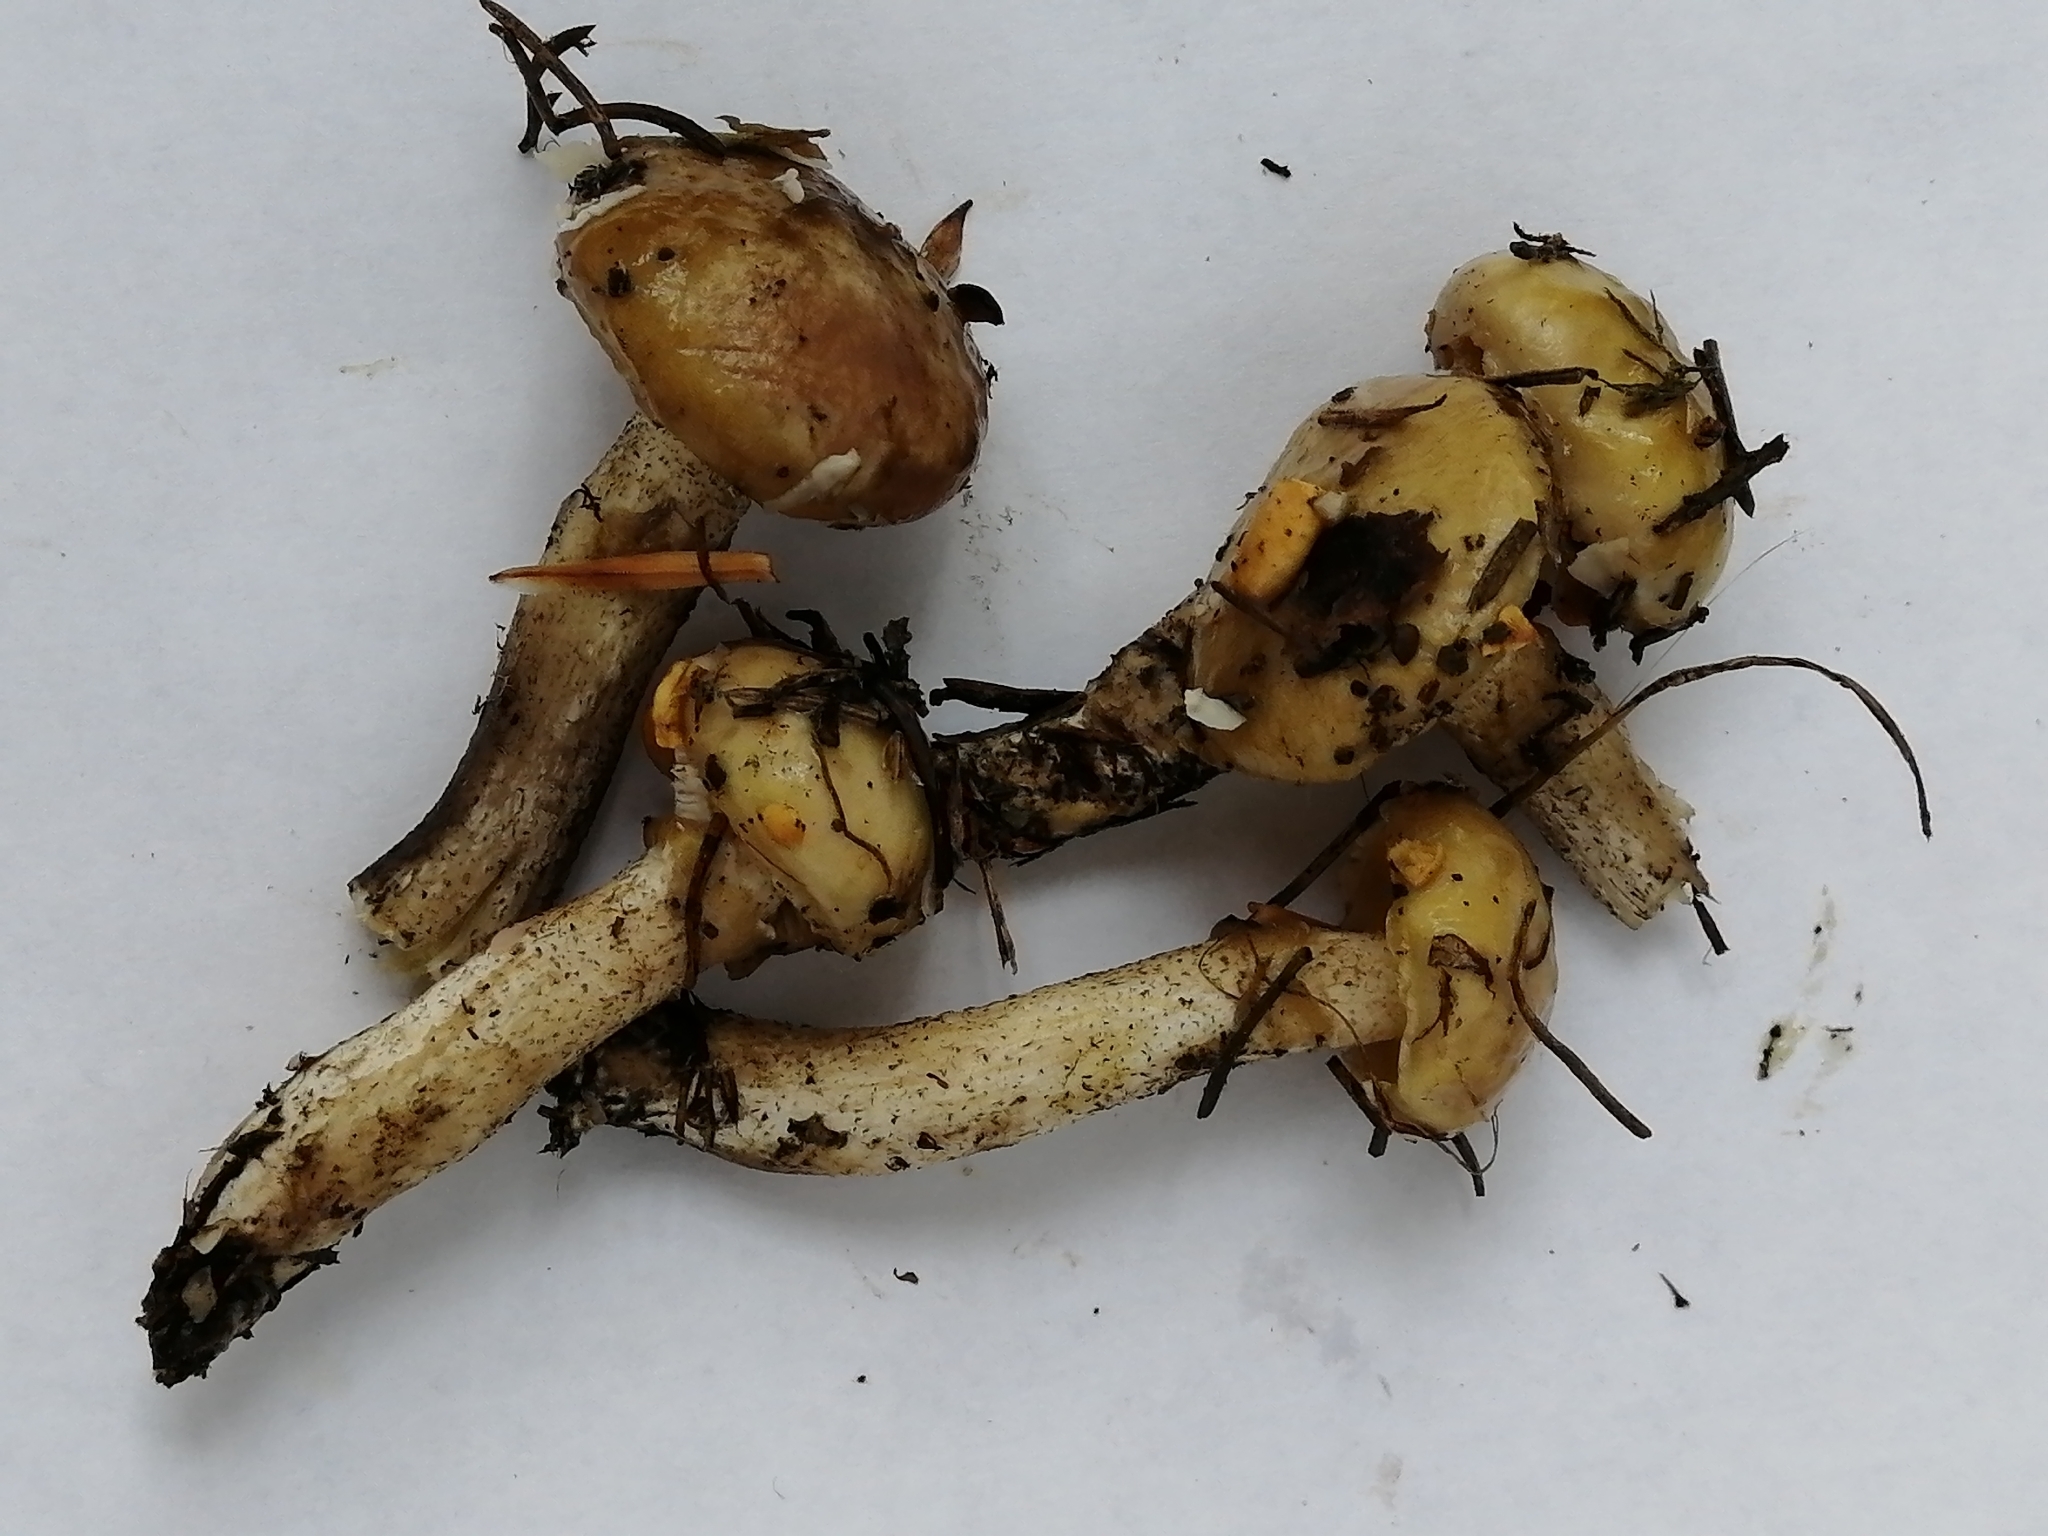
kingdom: Fungi
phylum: Basidiomycota
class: Agaricomycetes
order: Boletales
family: Suillaceae
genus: Suillus
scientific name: Suillus americanus
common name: Chicken fat mushroom
